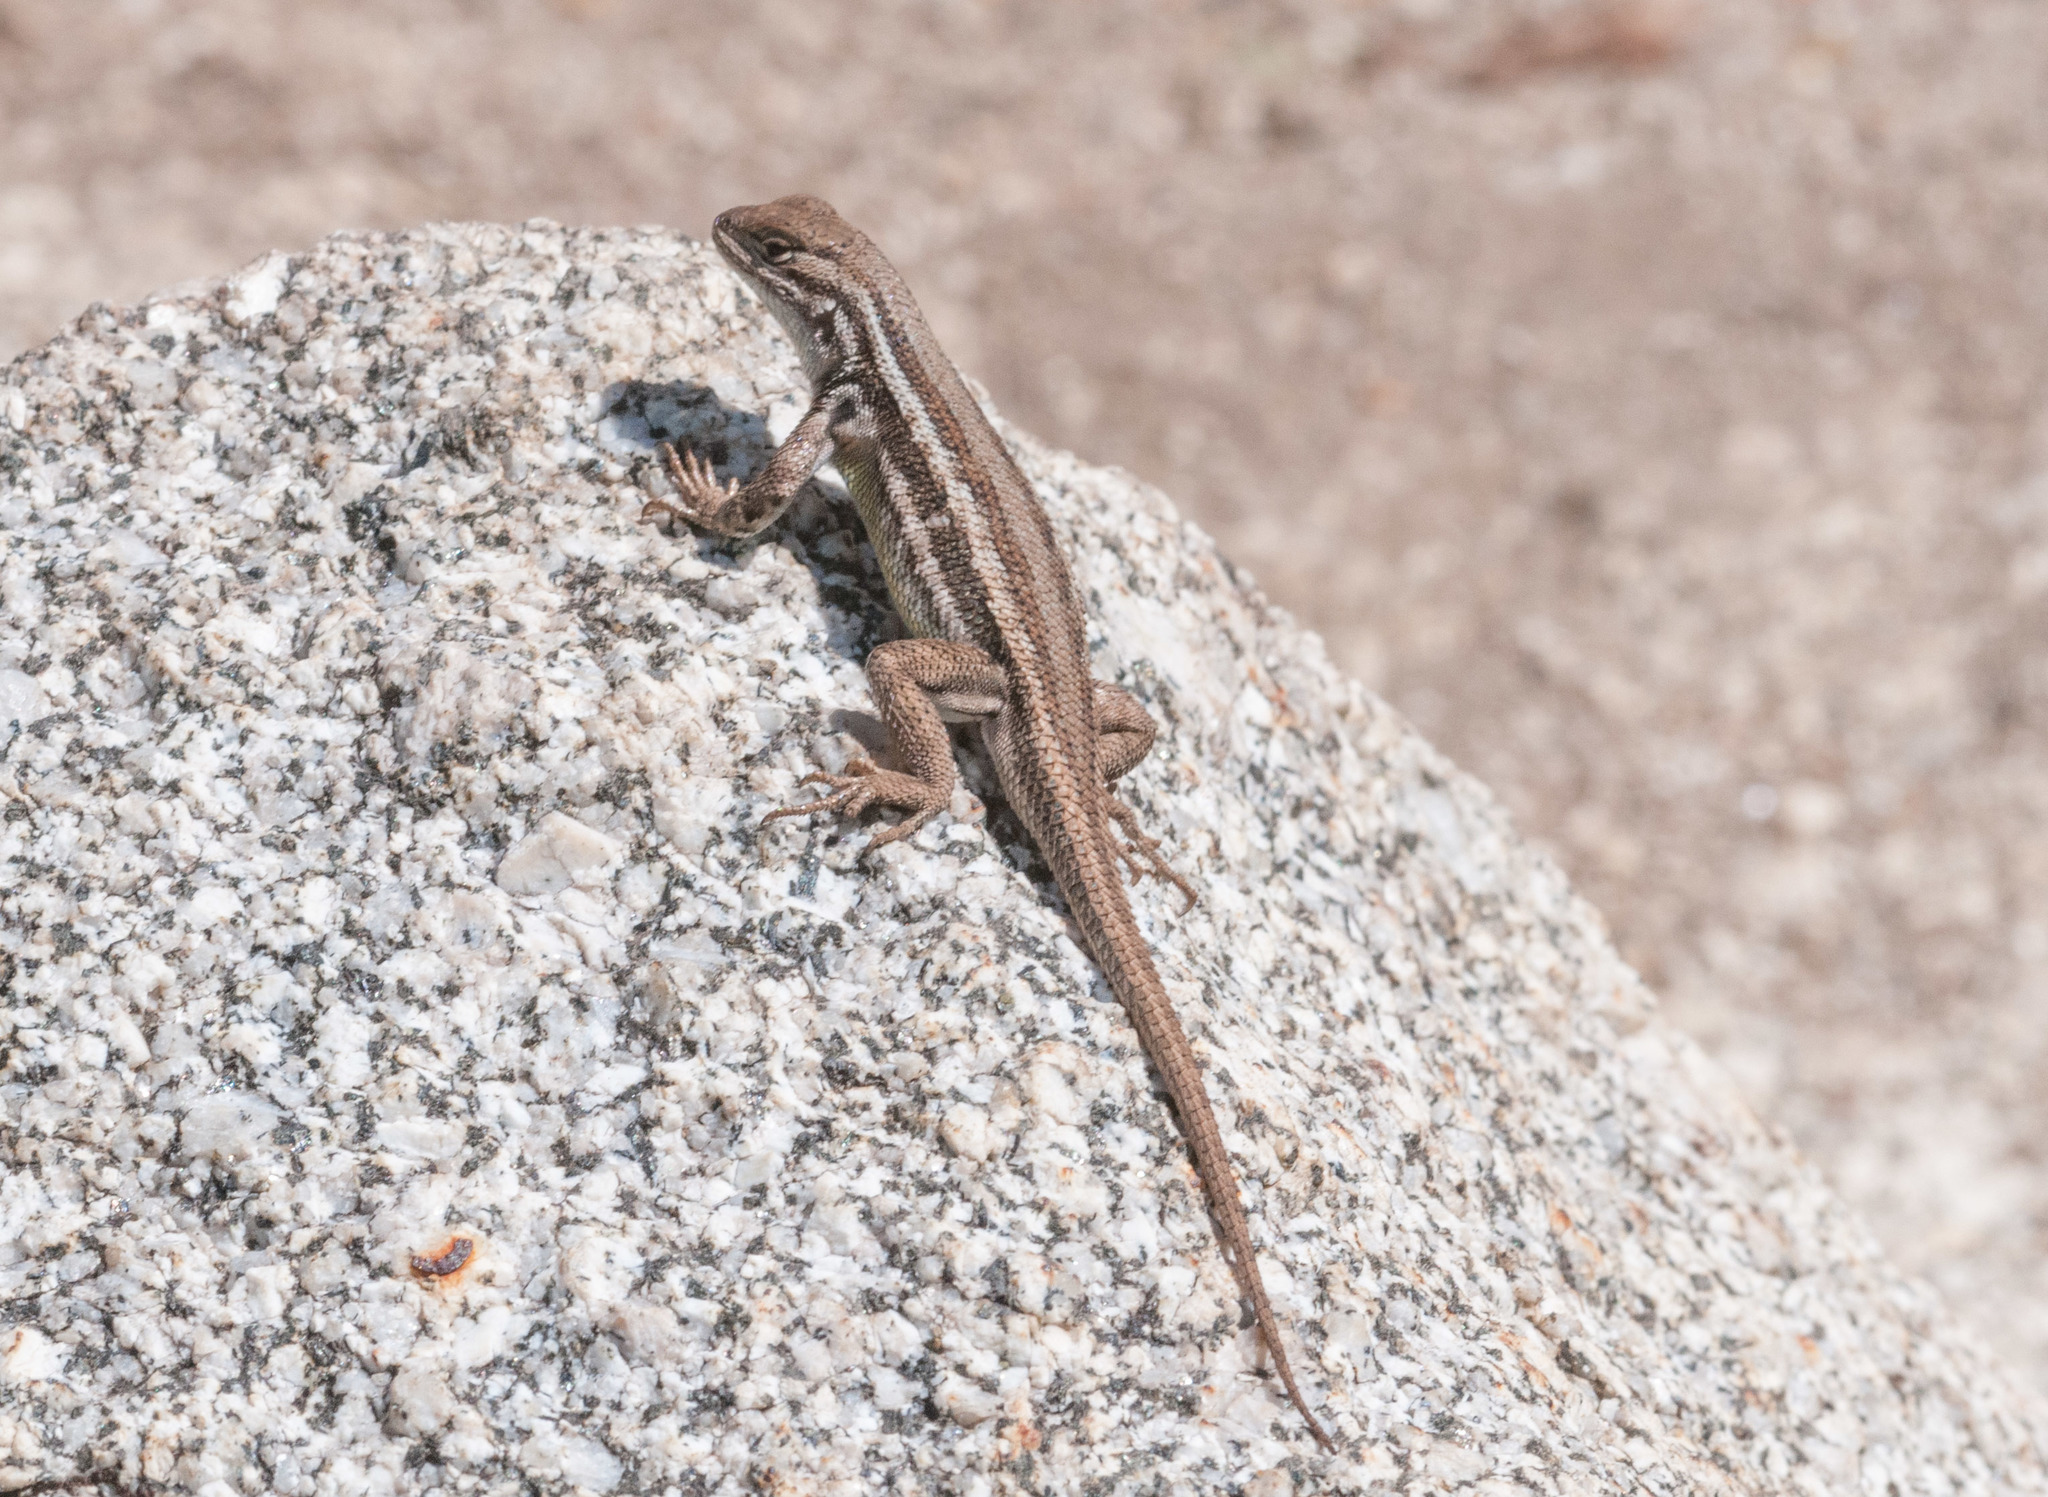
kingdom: Animalia
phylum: Chordata
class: Squamata
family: Phrynosomatidae
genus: Sceloporus
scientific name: Sceloporus graciosus
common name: Sagebrush lizard
